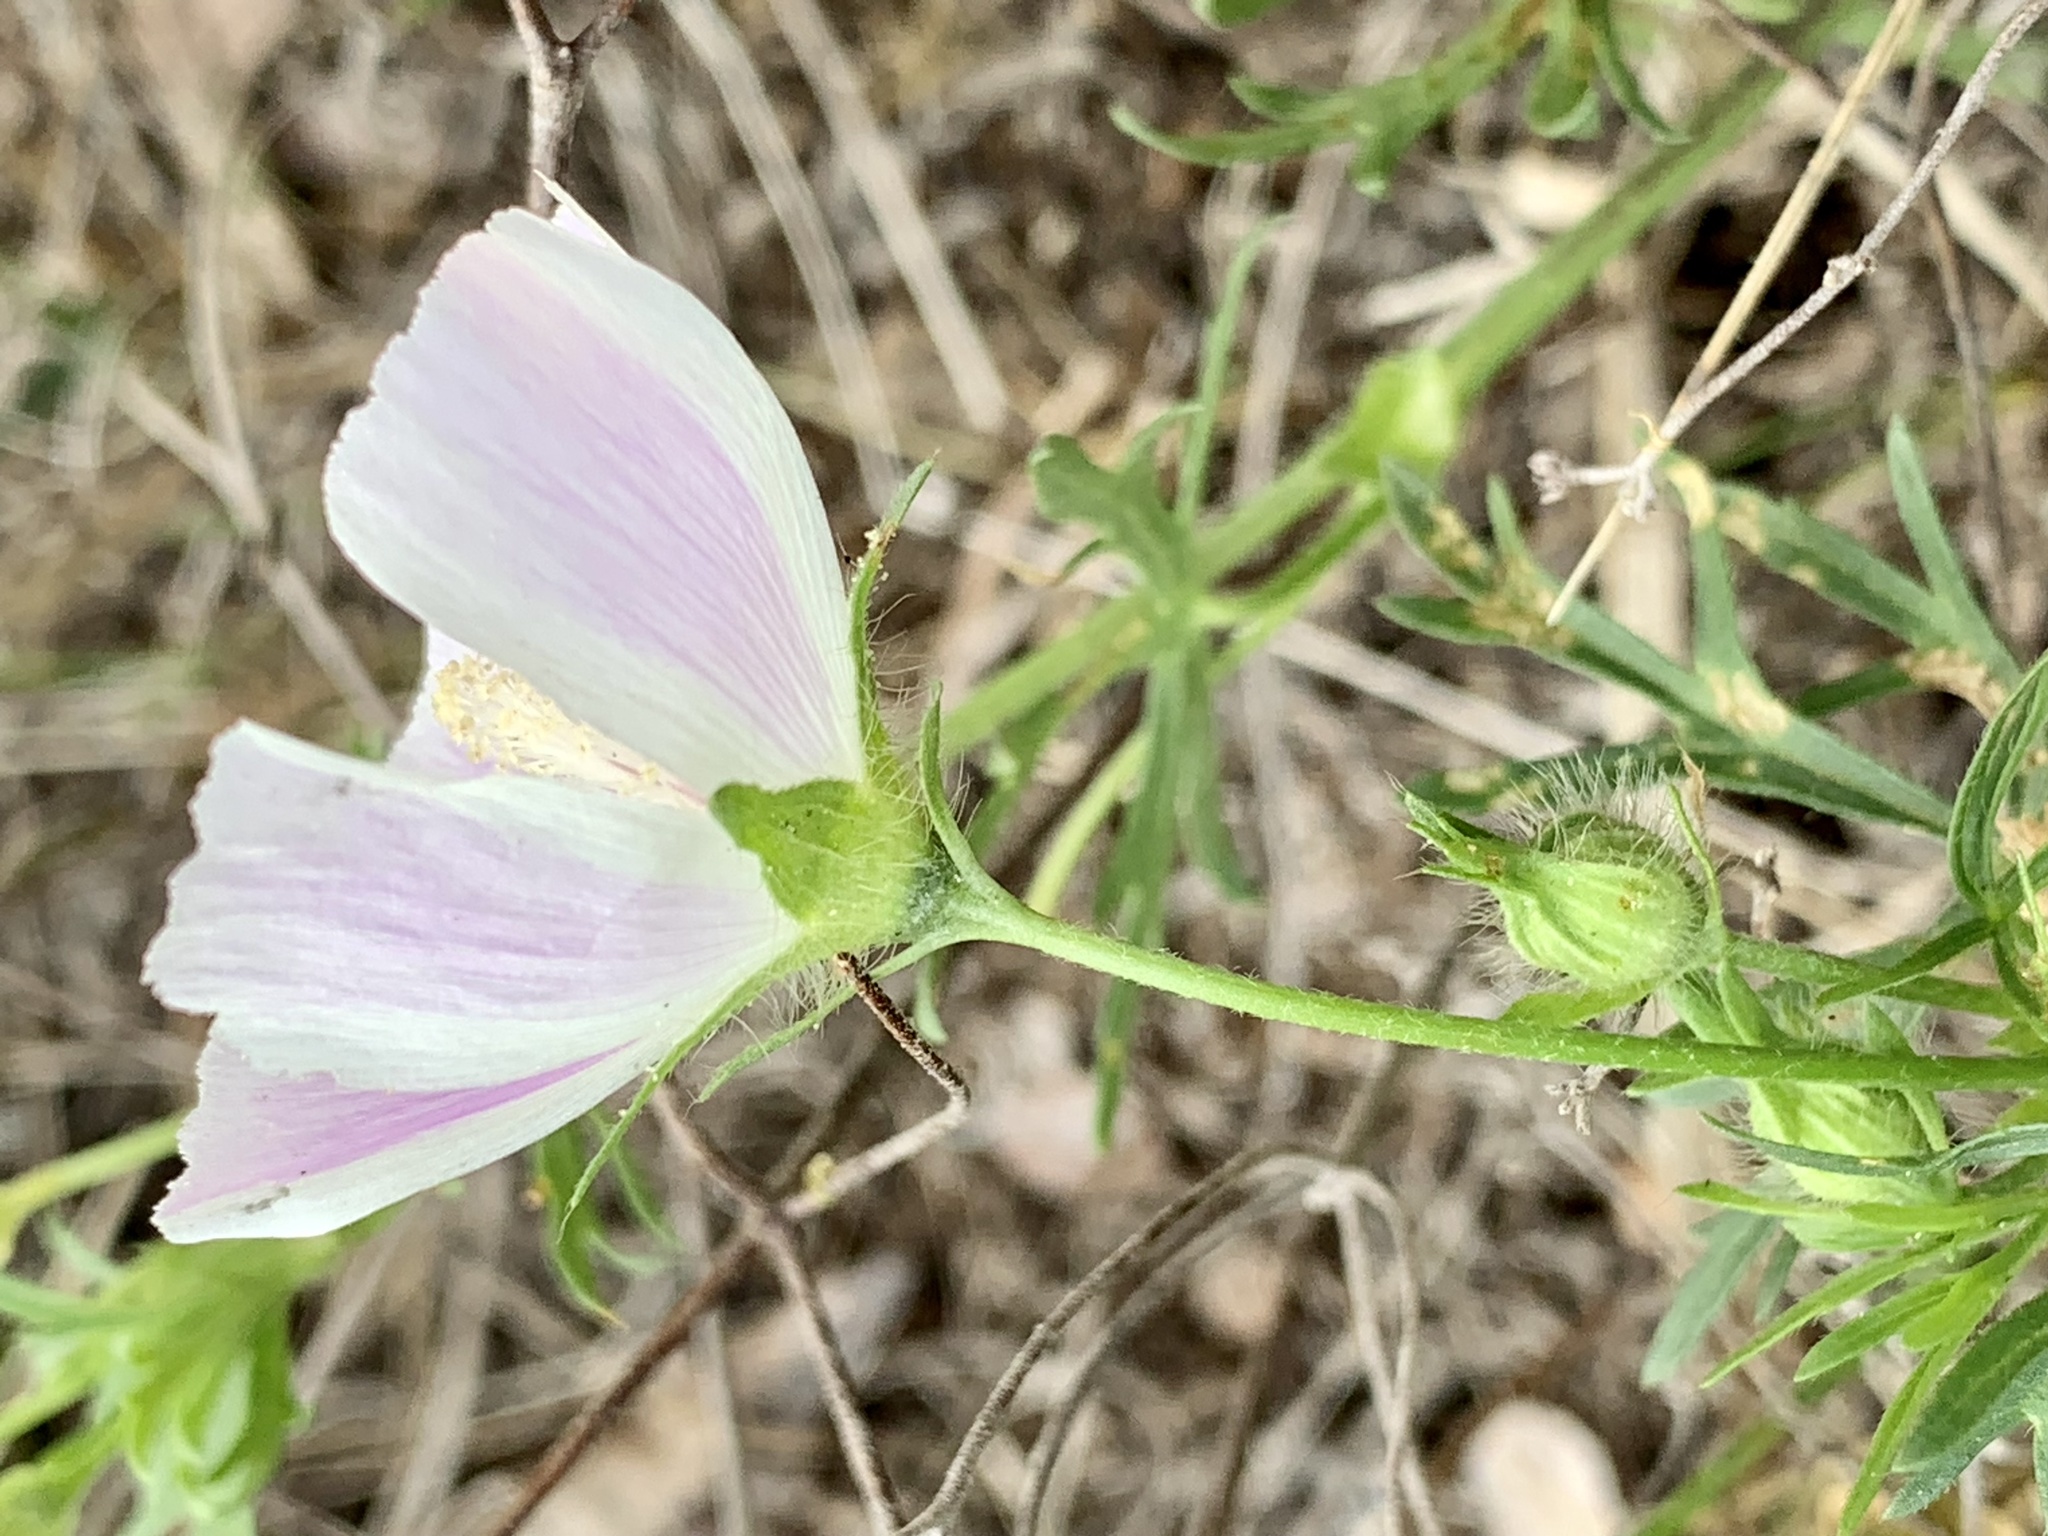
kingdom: Plantae
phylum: Tracheophyta
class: Magnoliopsida
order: Malvales
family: Malvaceae
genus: Callirhoe
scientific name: Callirhoe involucrata
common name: Purple poppy-mallow
